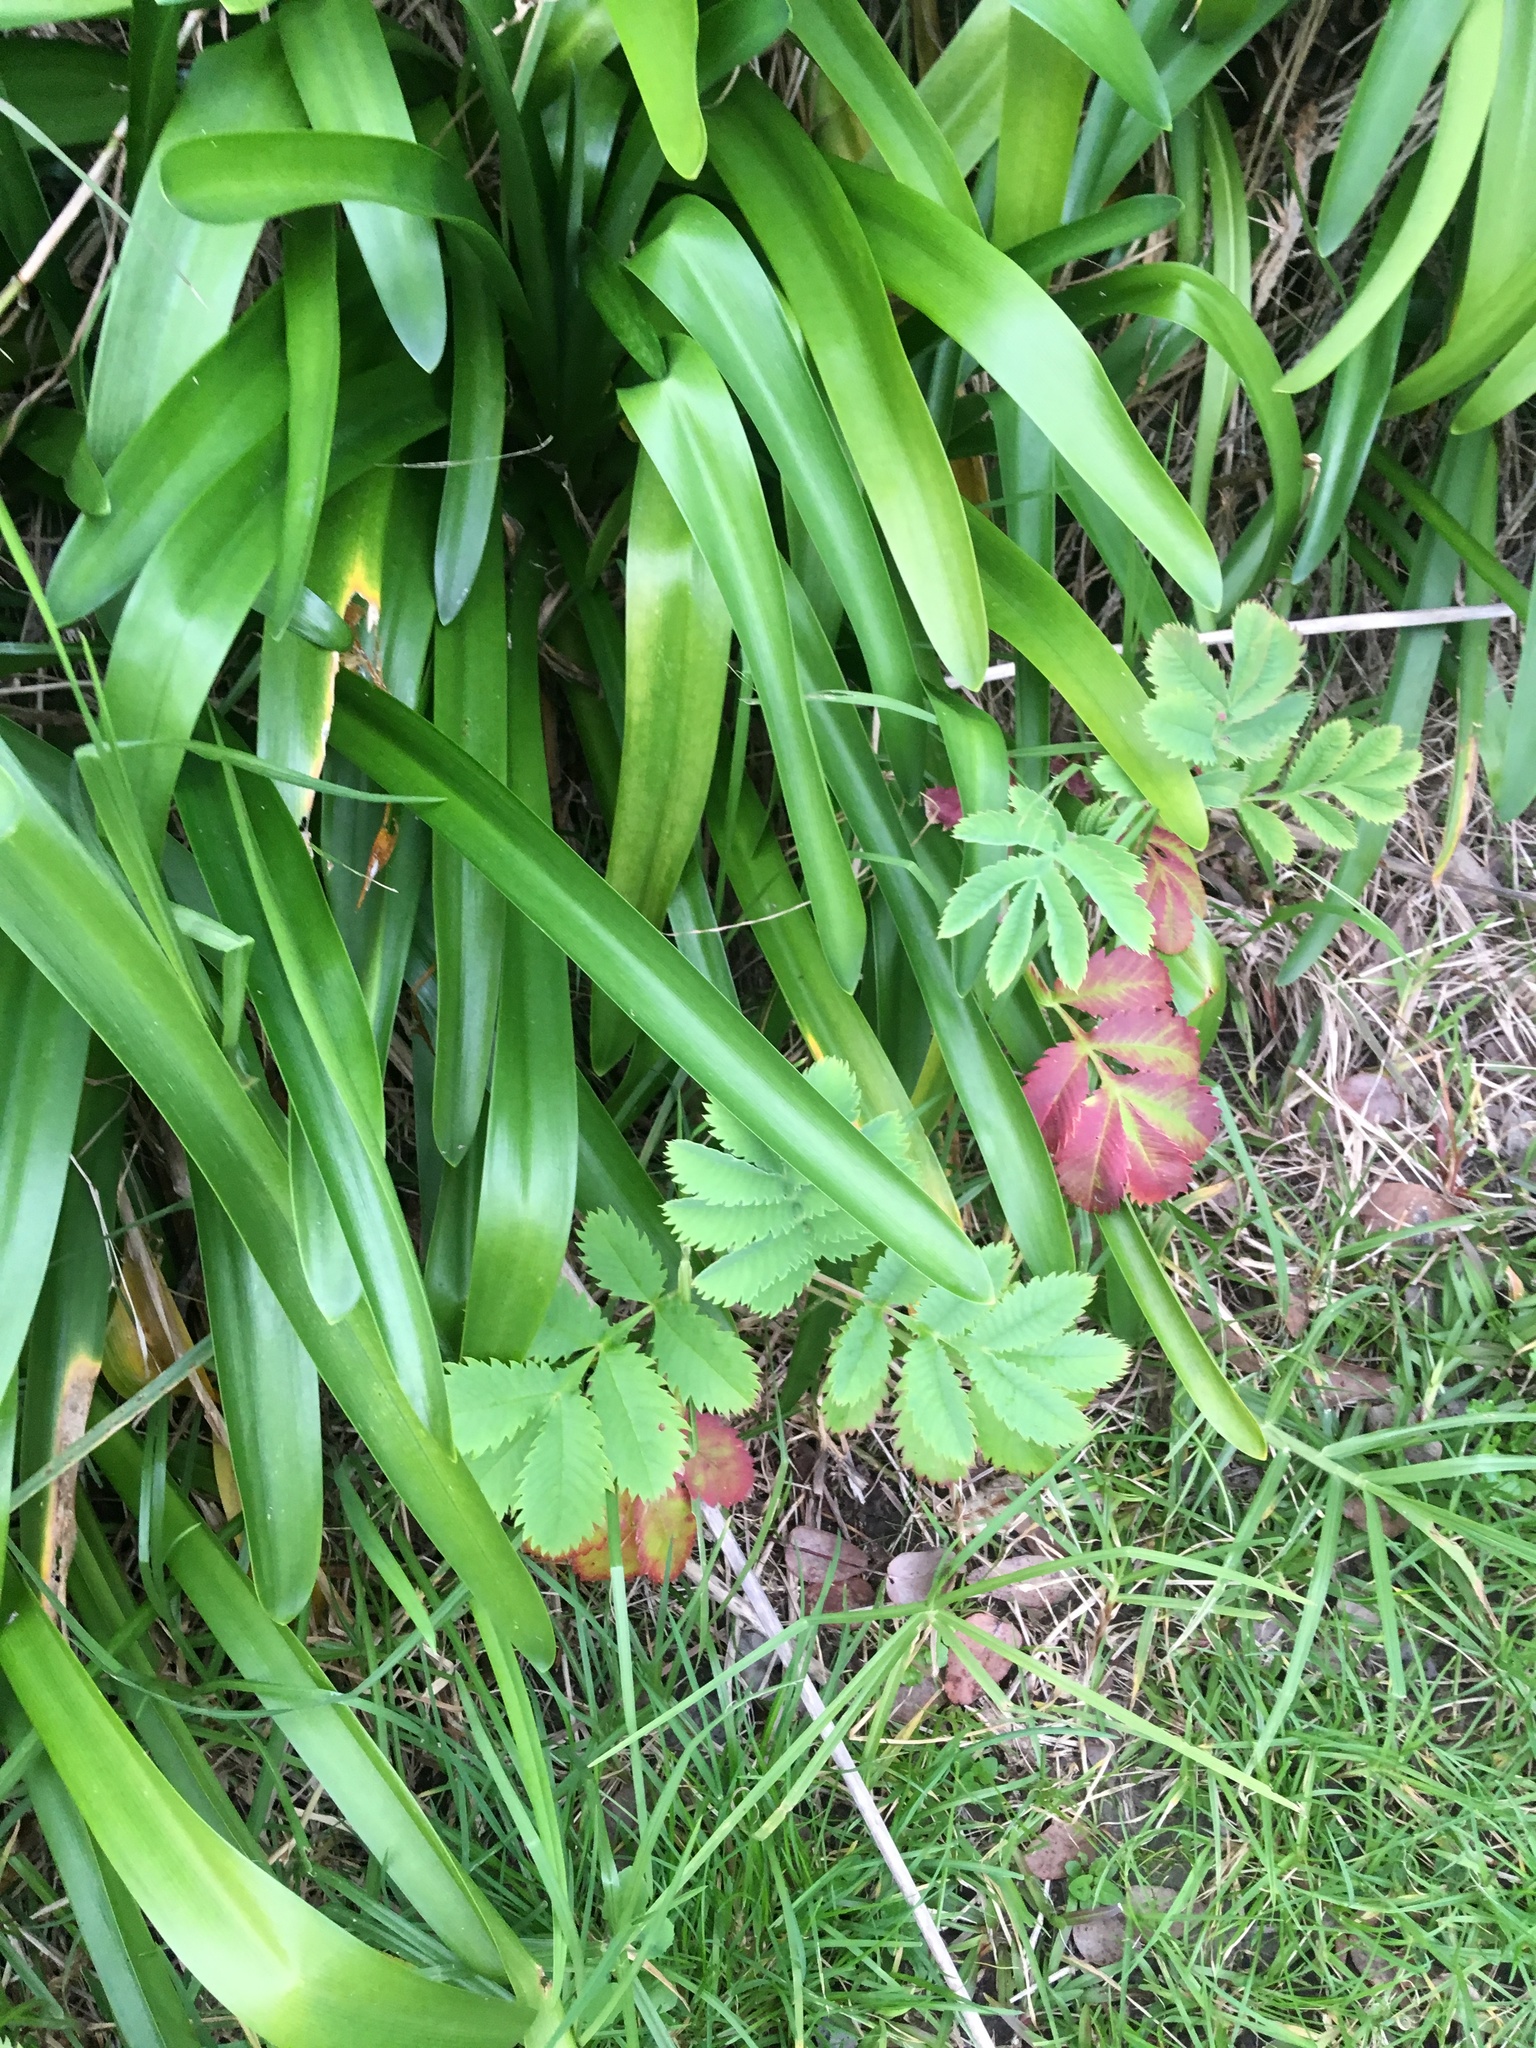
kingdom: Plantae
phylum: Tracheophyta
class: Magnoliopsida
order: Geraniales
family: Melianthaceae
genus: Melianthus
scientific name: Melianthus major
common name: Honey-flower
